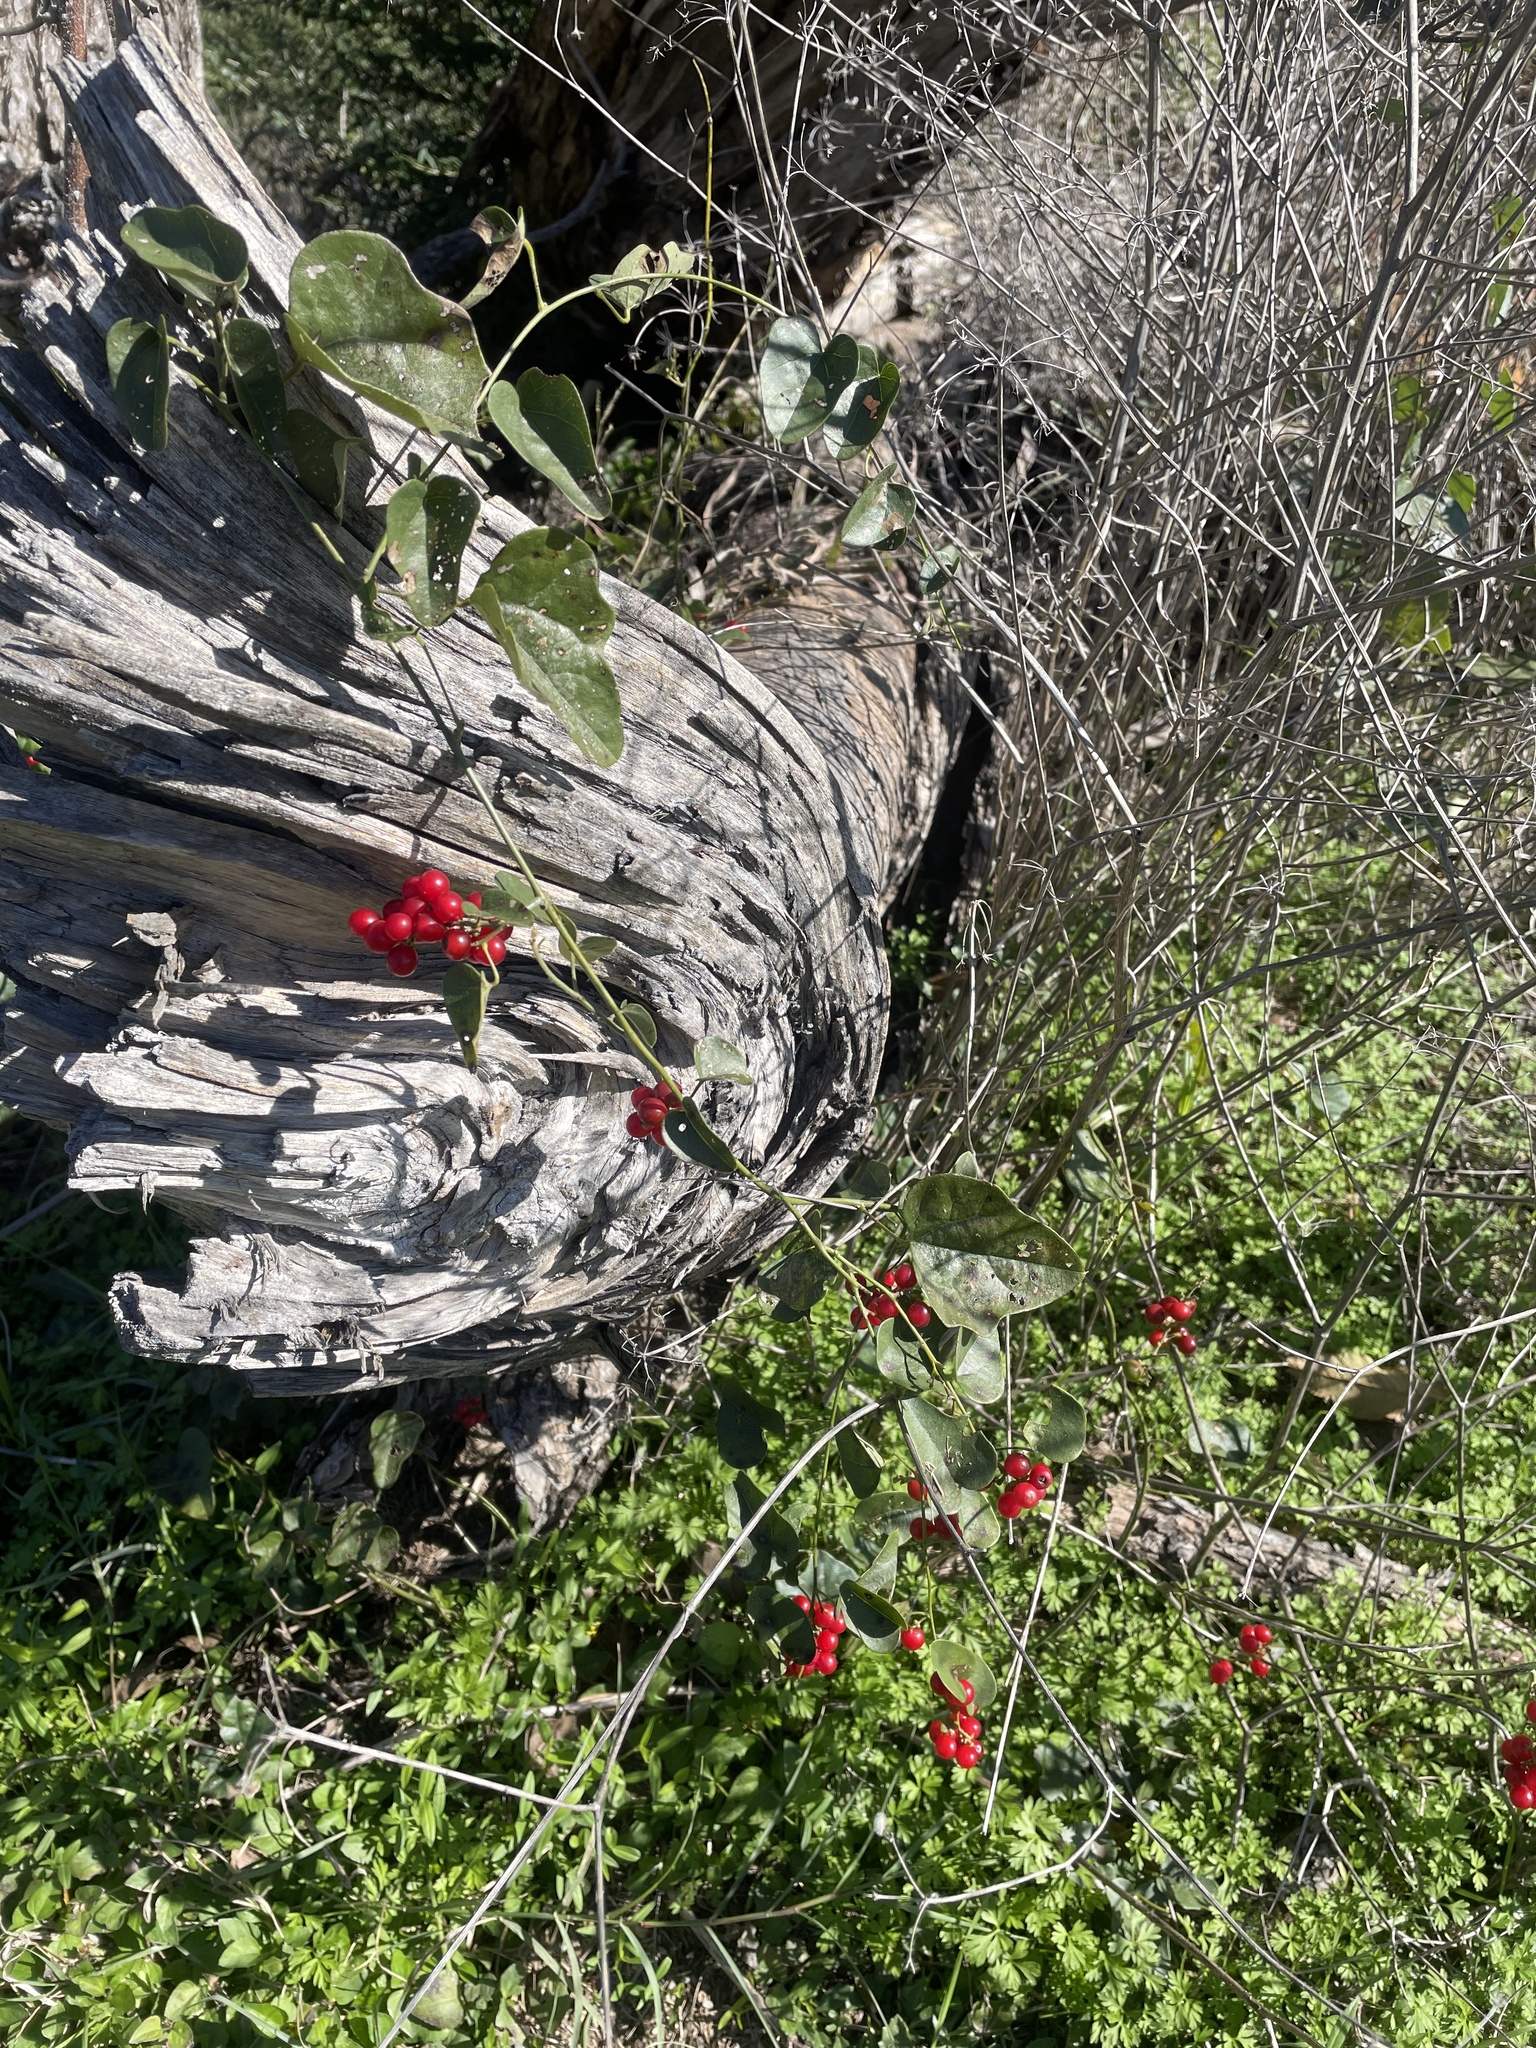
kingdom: Plantae
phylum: Tracheophyta
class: Magnoliopsida
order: Ranunculales
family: Menispermaceae
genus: Cocculus
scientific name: Cocculus carolinus
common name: Carolina moonseed
